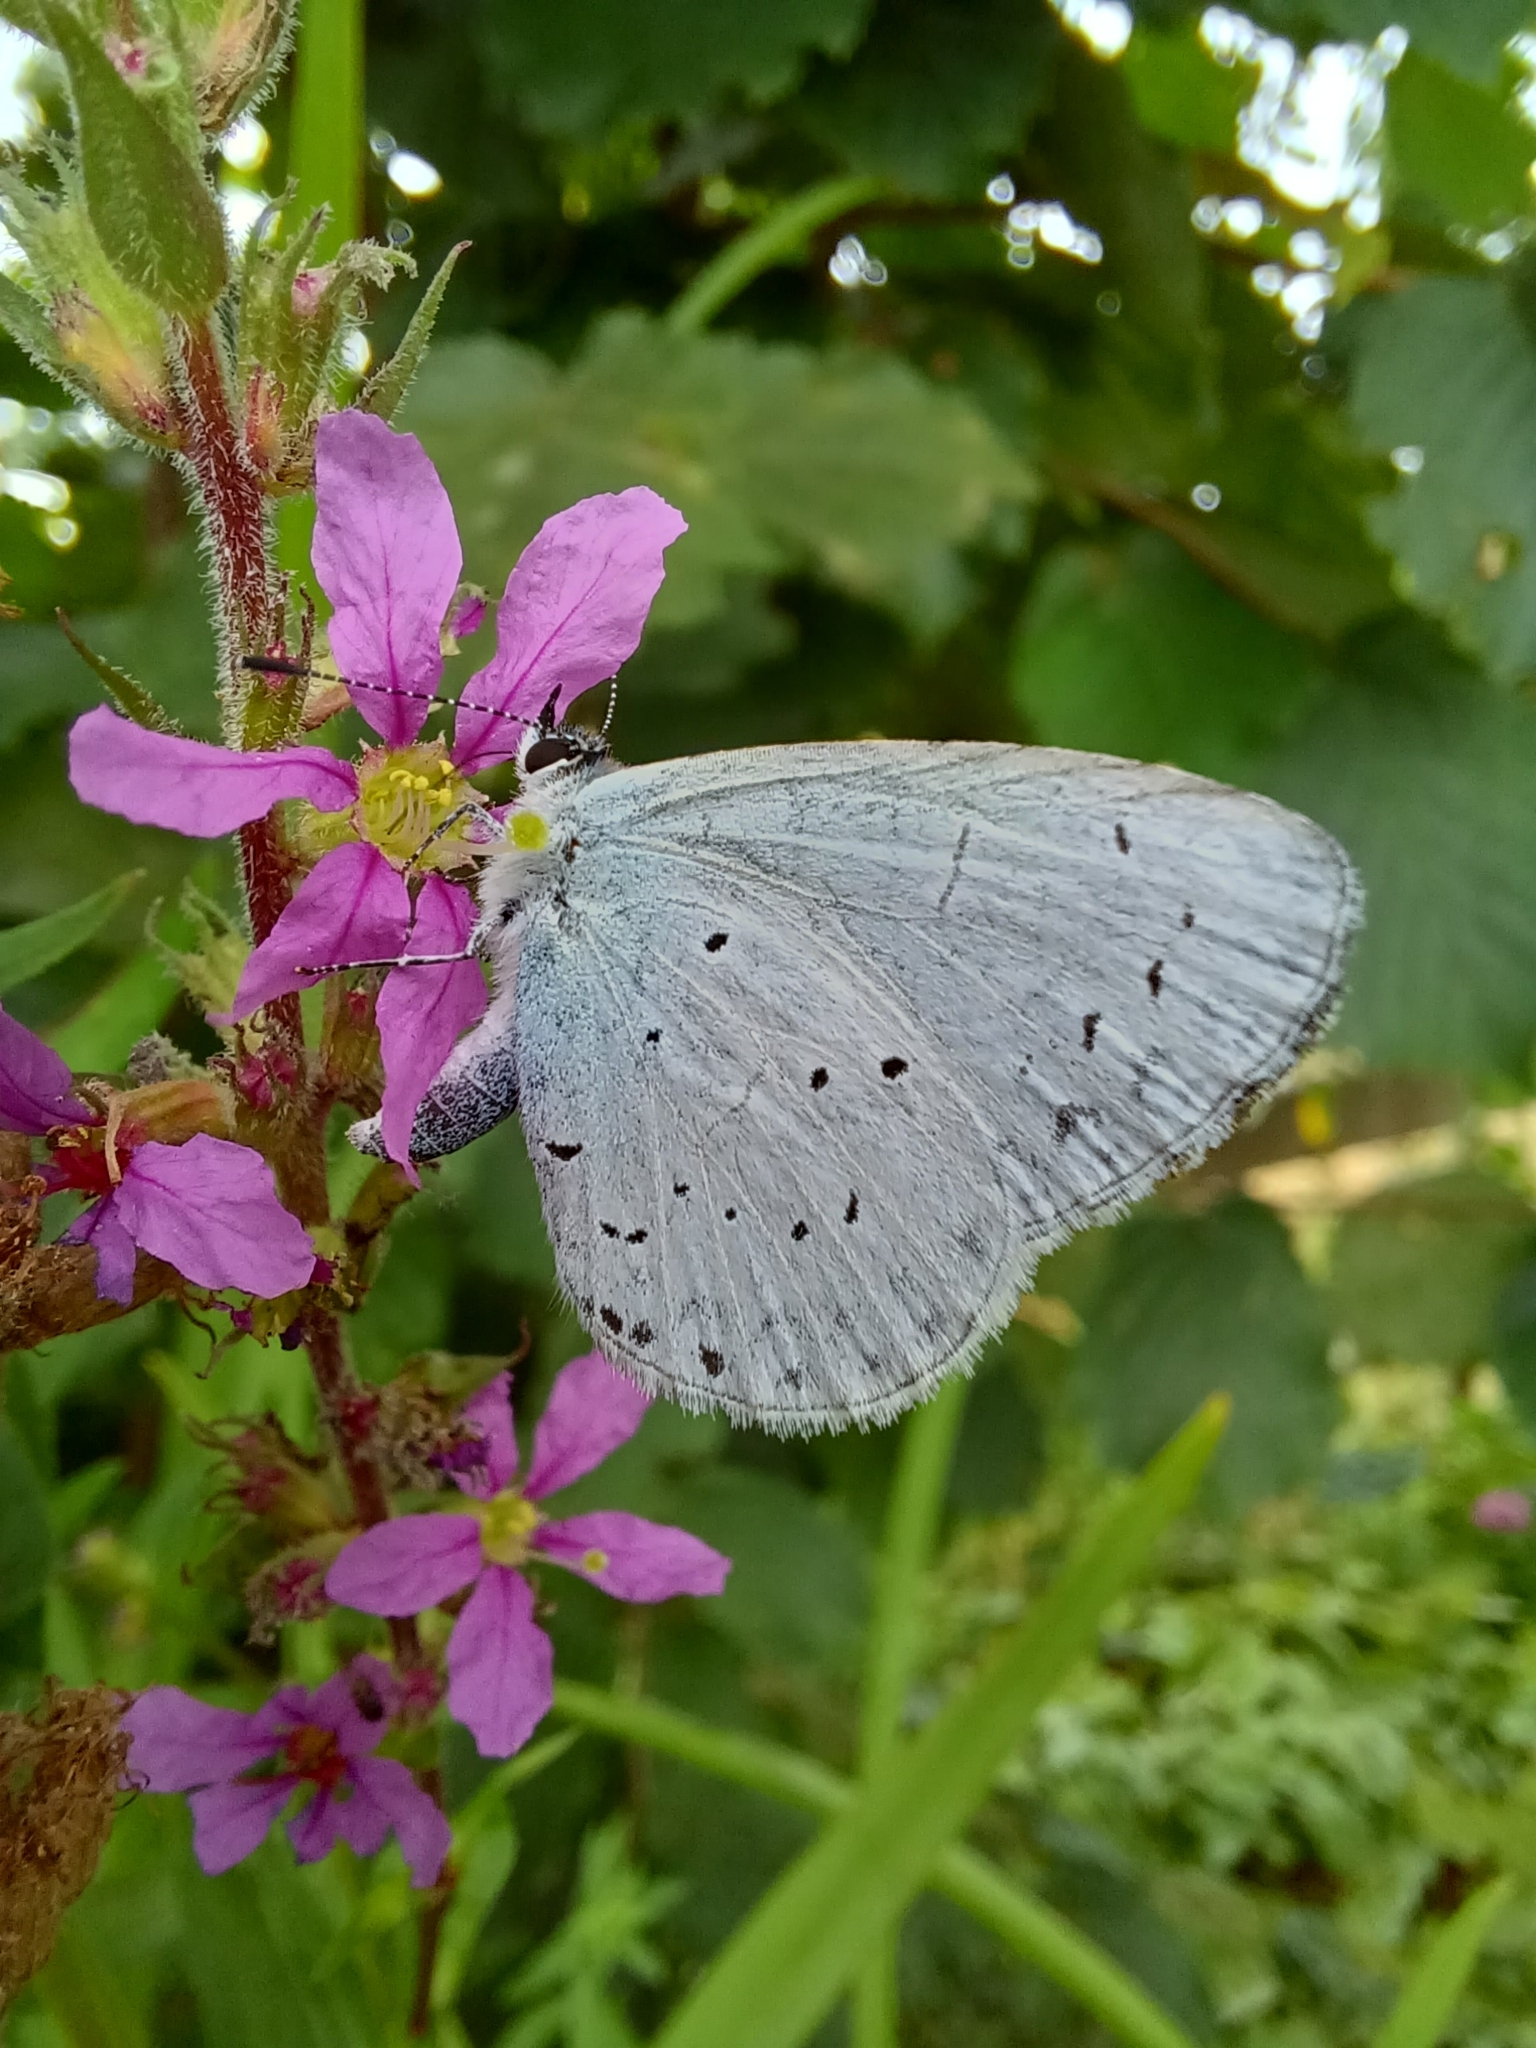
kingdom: Animalia
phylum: Arthropoda
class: Insecta
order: Lepidoptera
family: Lycaenidae
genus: Celastrina
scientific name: Celastrina argiolus
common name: Holly blue
